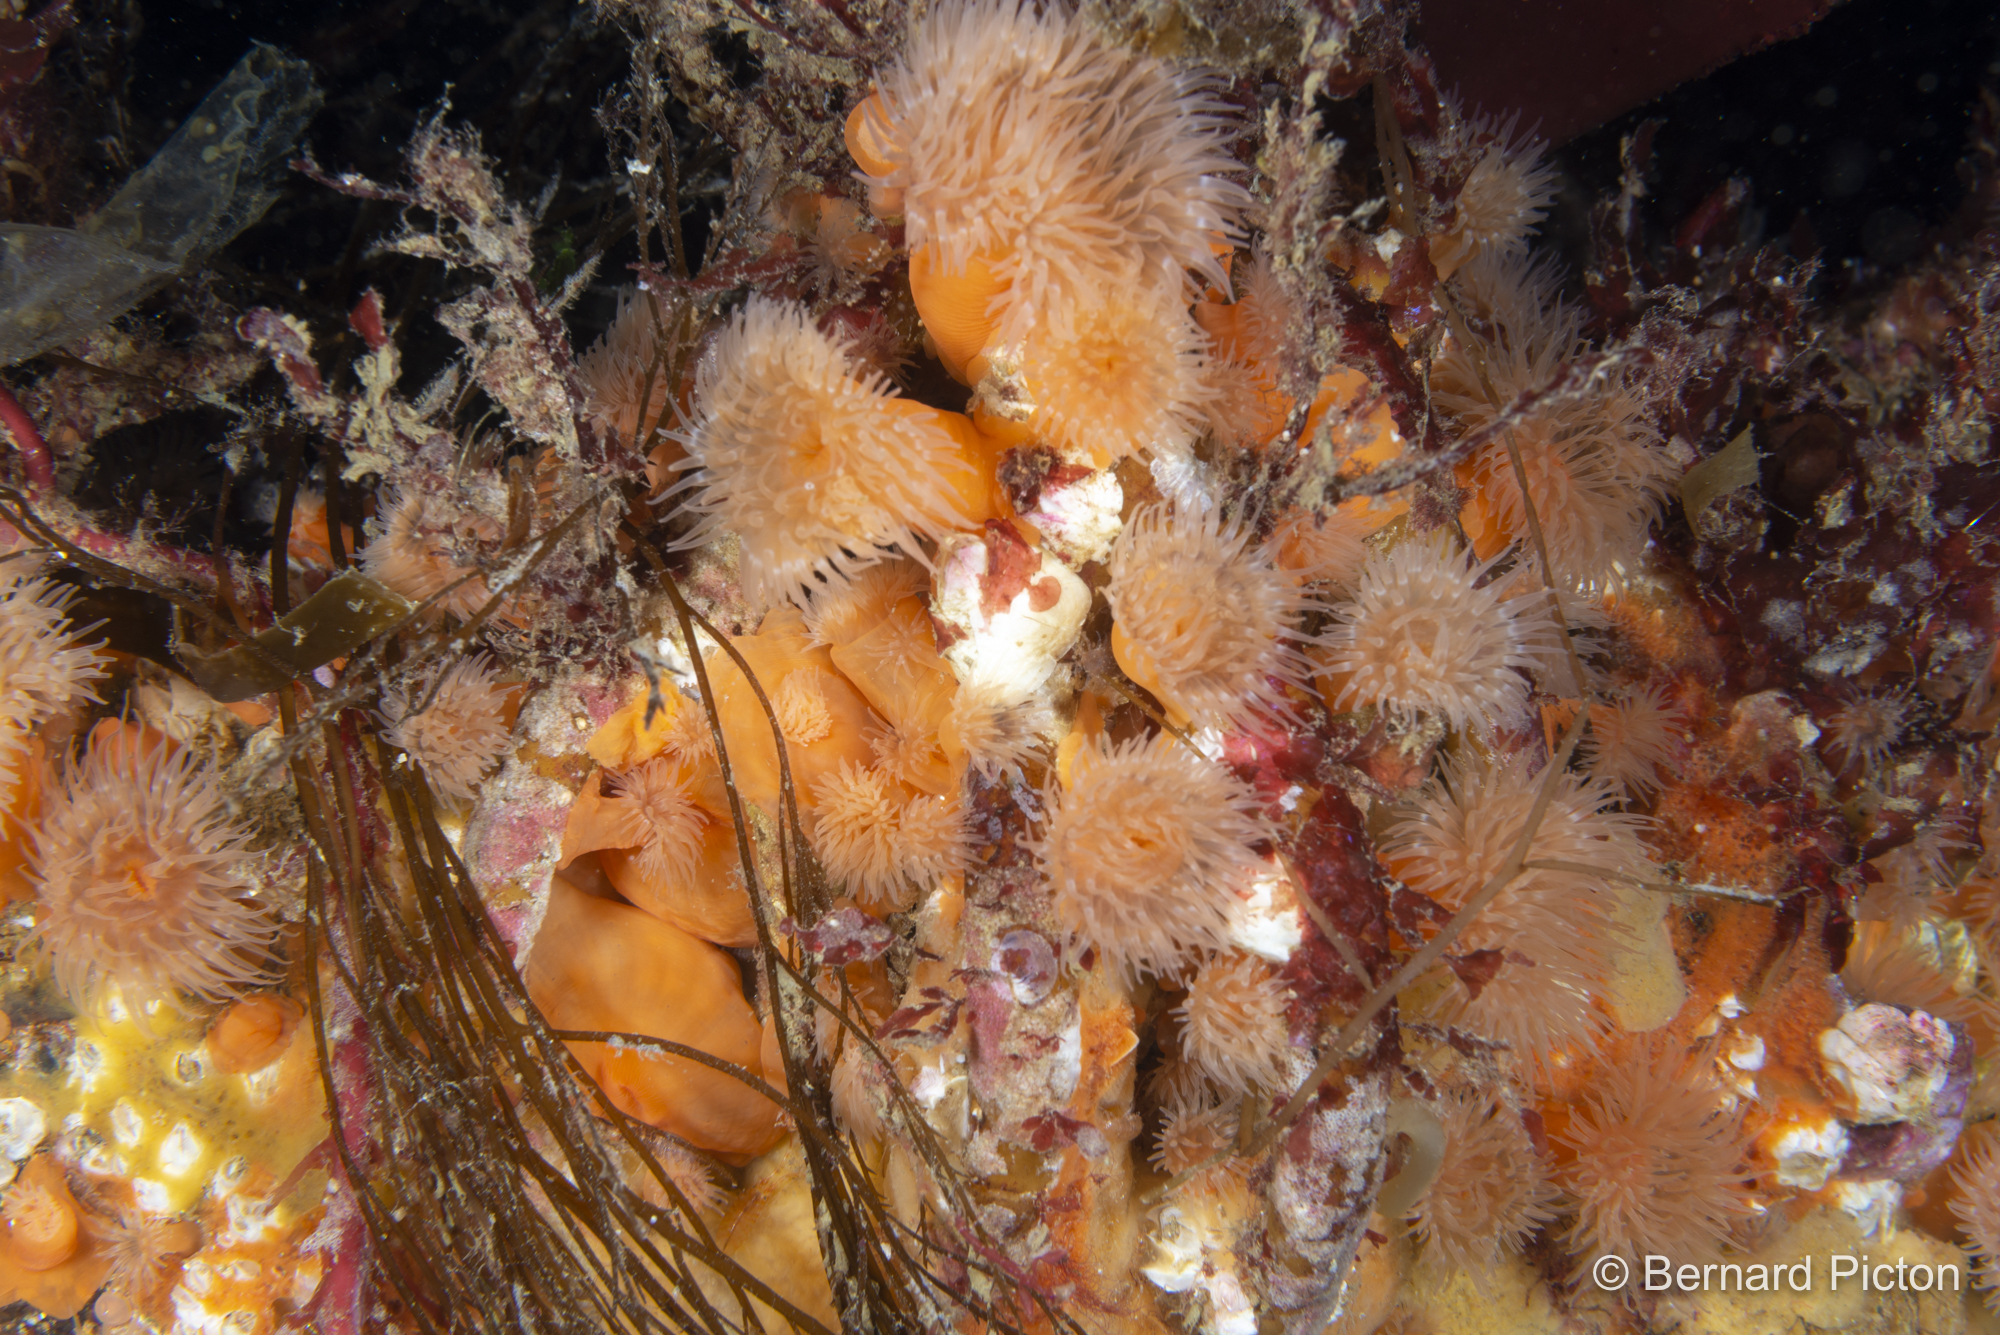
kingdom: Animalia
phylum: Cnidaria
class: Anthozoa
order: Actiniaria
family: Metridiidae
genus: Metridium
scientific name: Metridium senile
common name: Clonal plumose anemone
